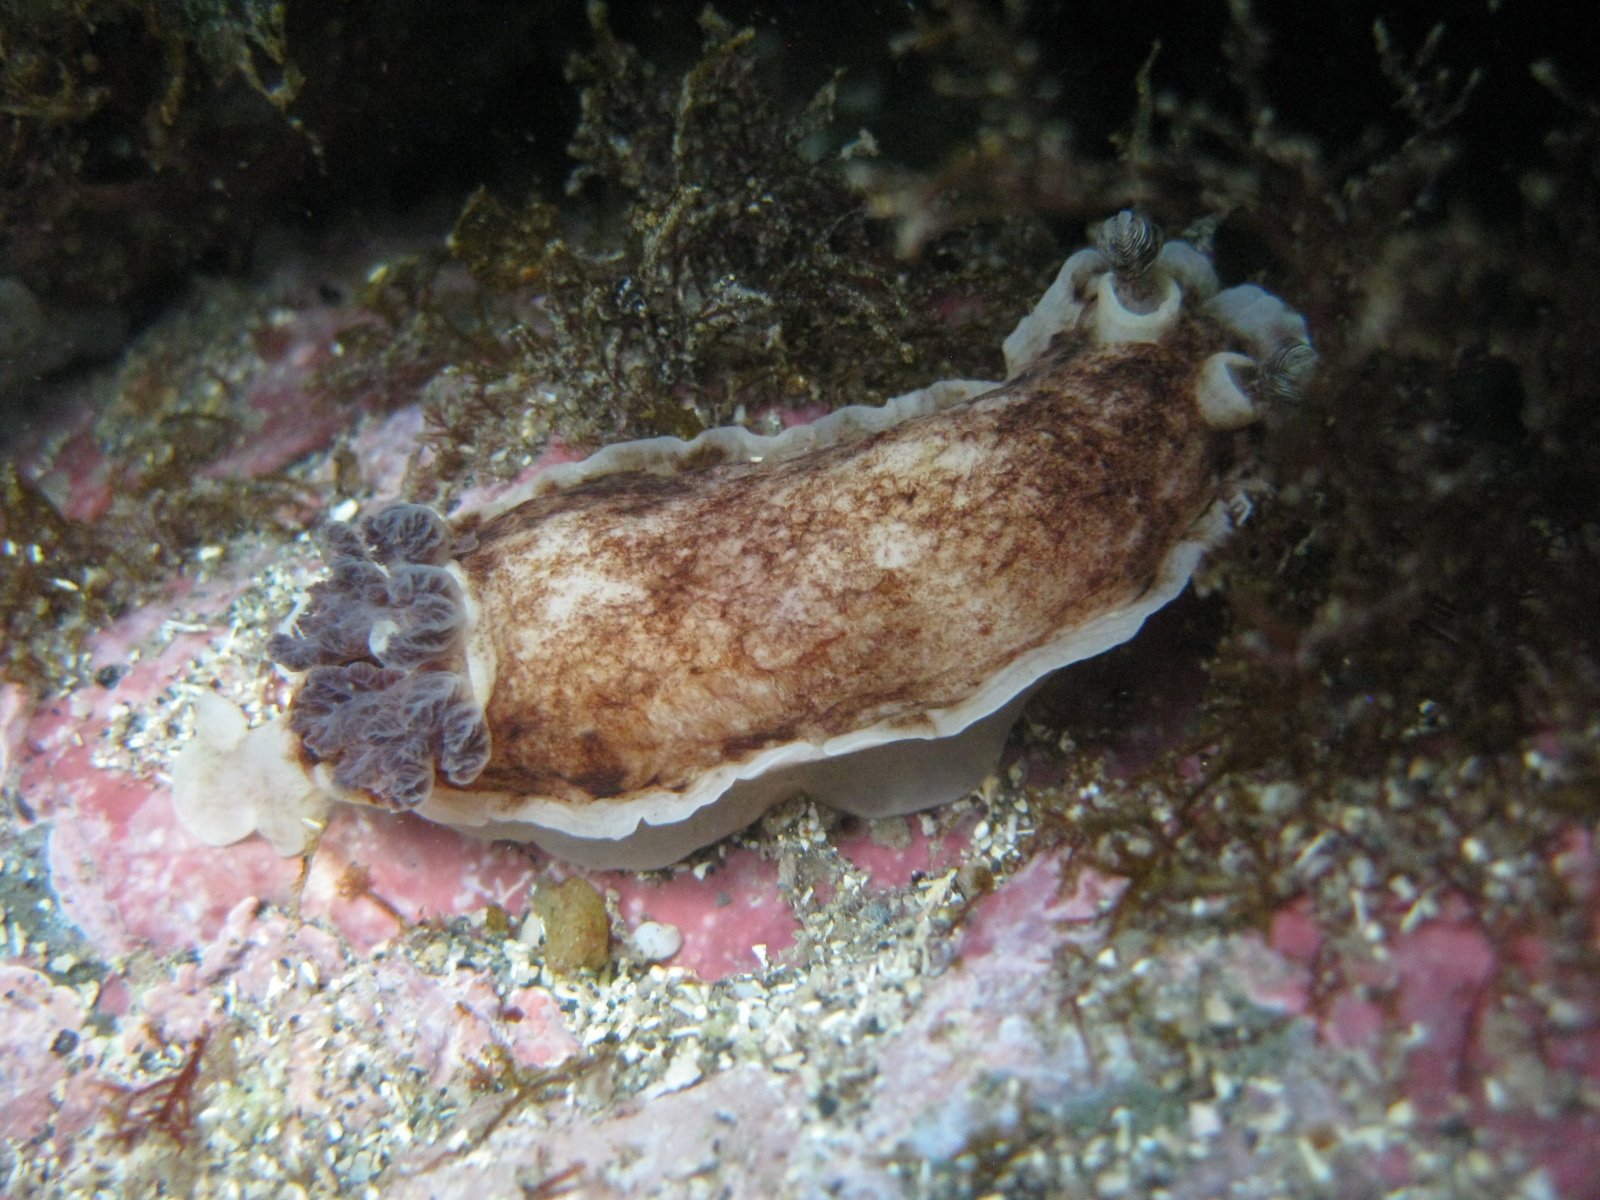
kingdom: Animalia
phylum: Mollusca
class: Gastropoda
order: Nudibranchia
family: Dorididae
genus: Aphelodoris
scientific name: Aphelodoris luctuosa
